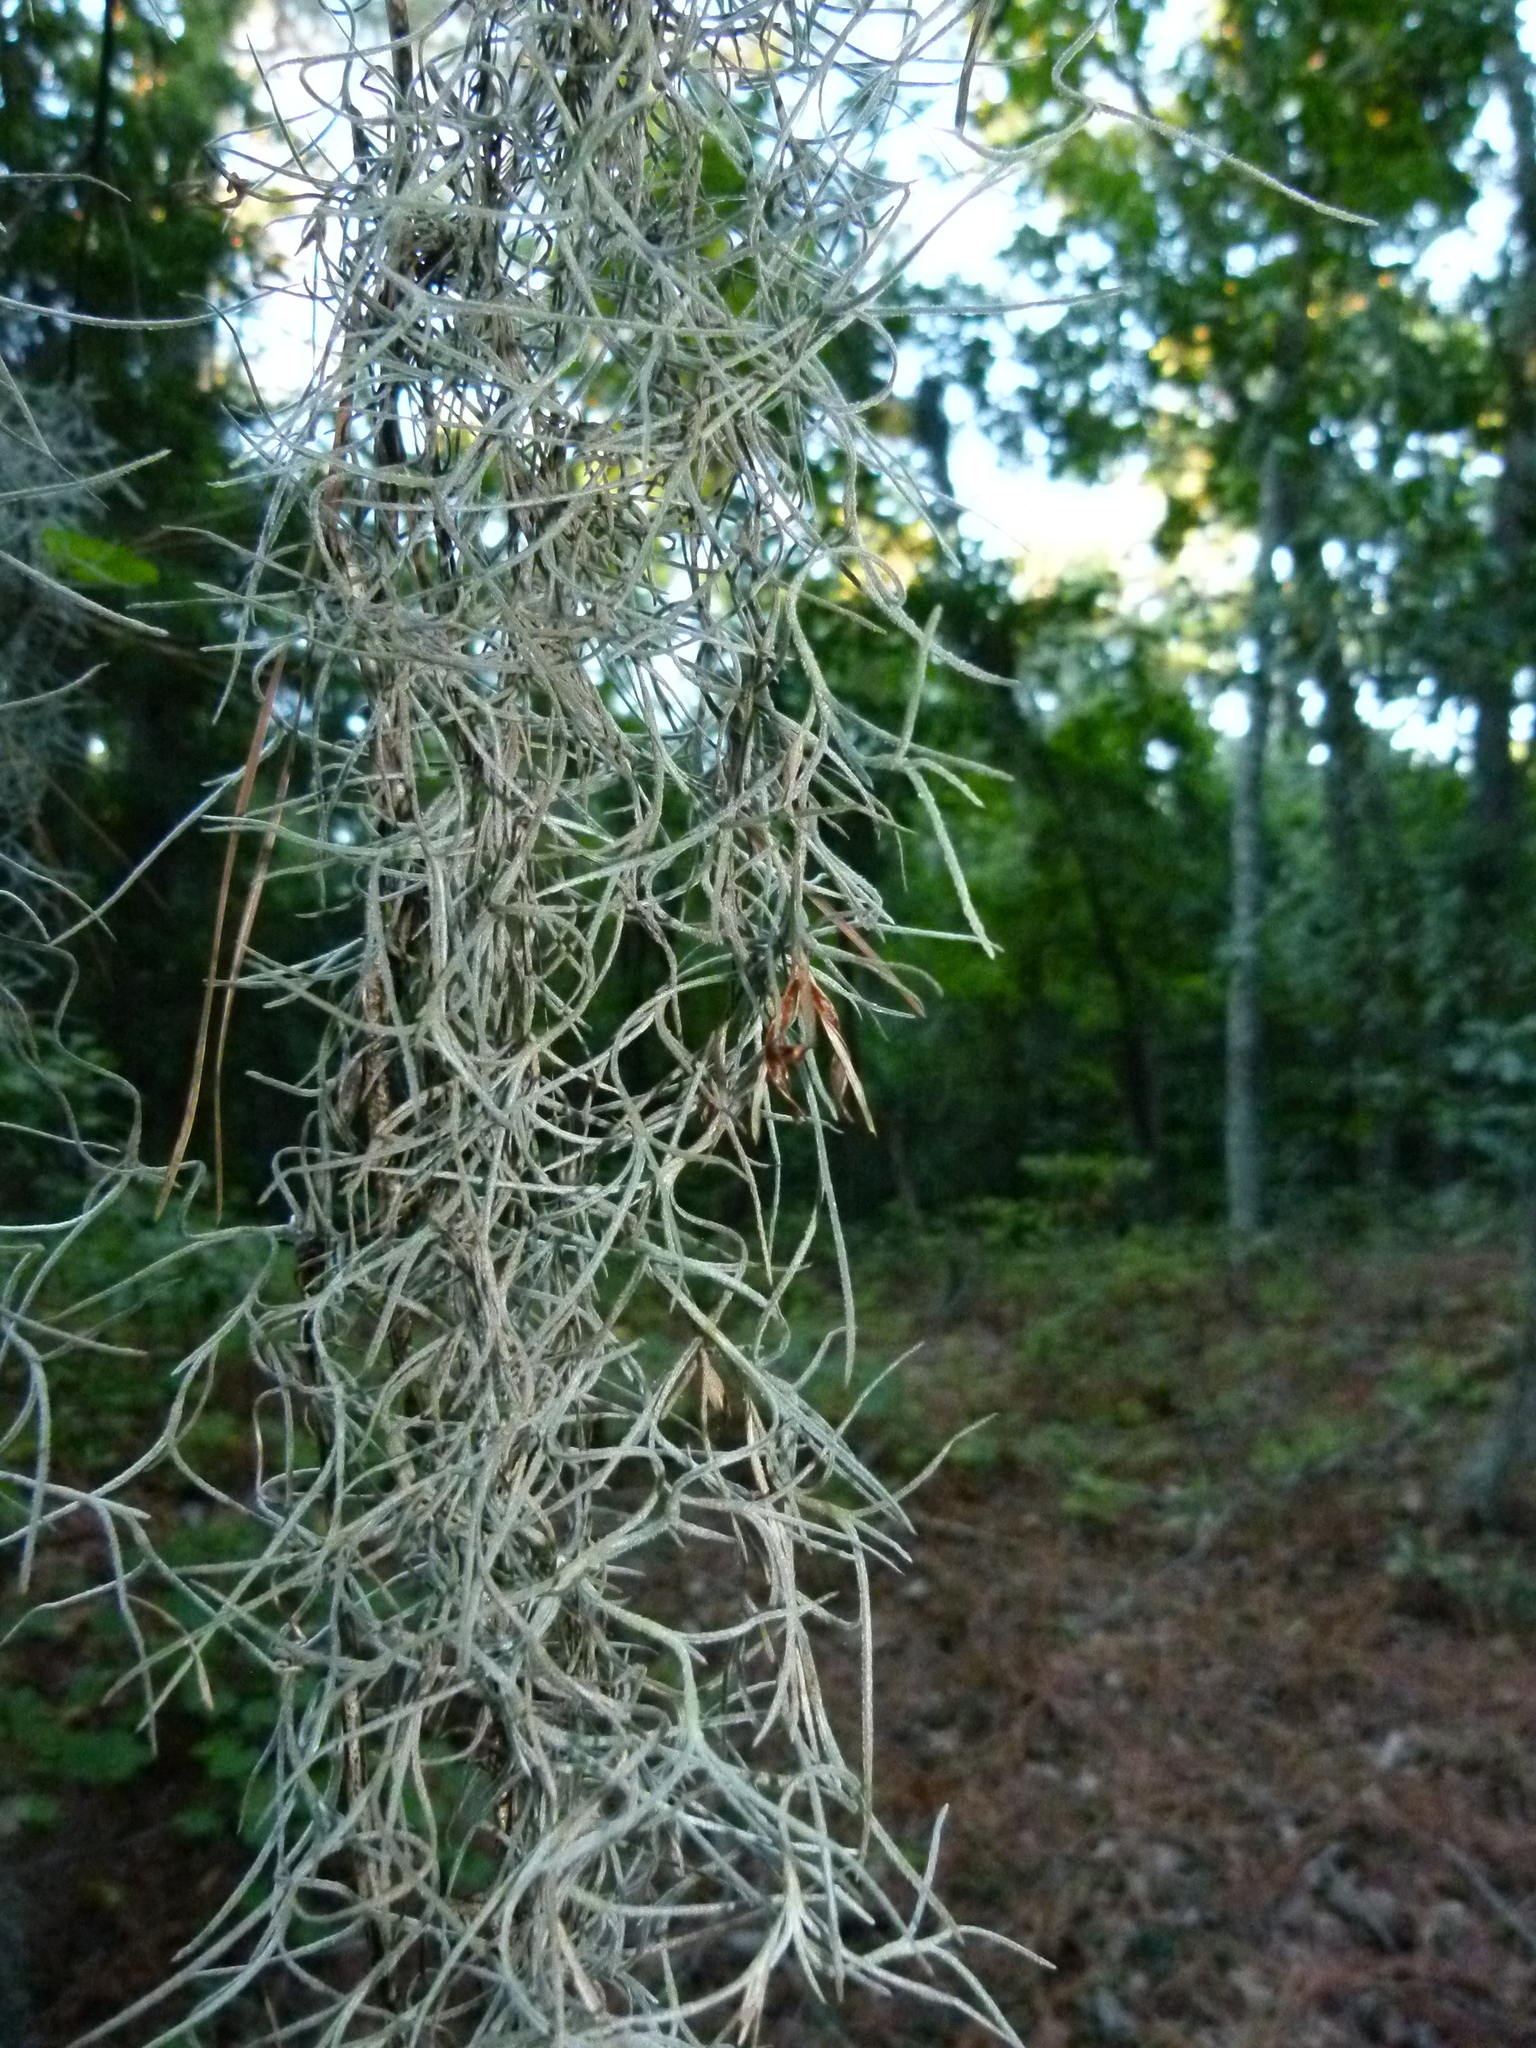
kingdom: Plantae
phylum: Tracheophyta
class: Liliopsida
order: Poales
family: Bromeliaceae
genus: Tillandsia
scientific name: Tillandsia usneoides
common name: Spanish moss
